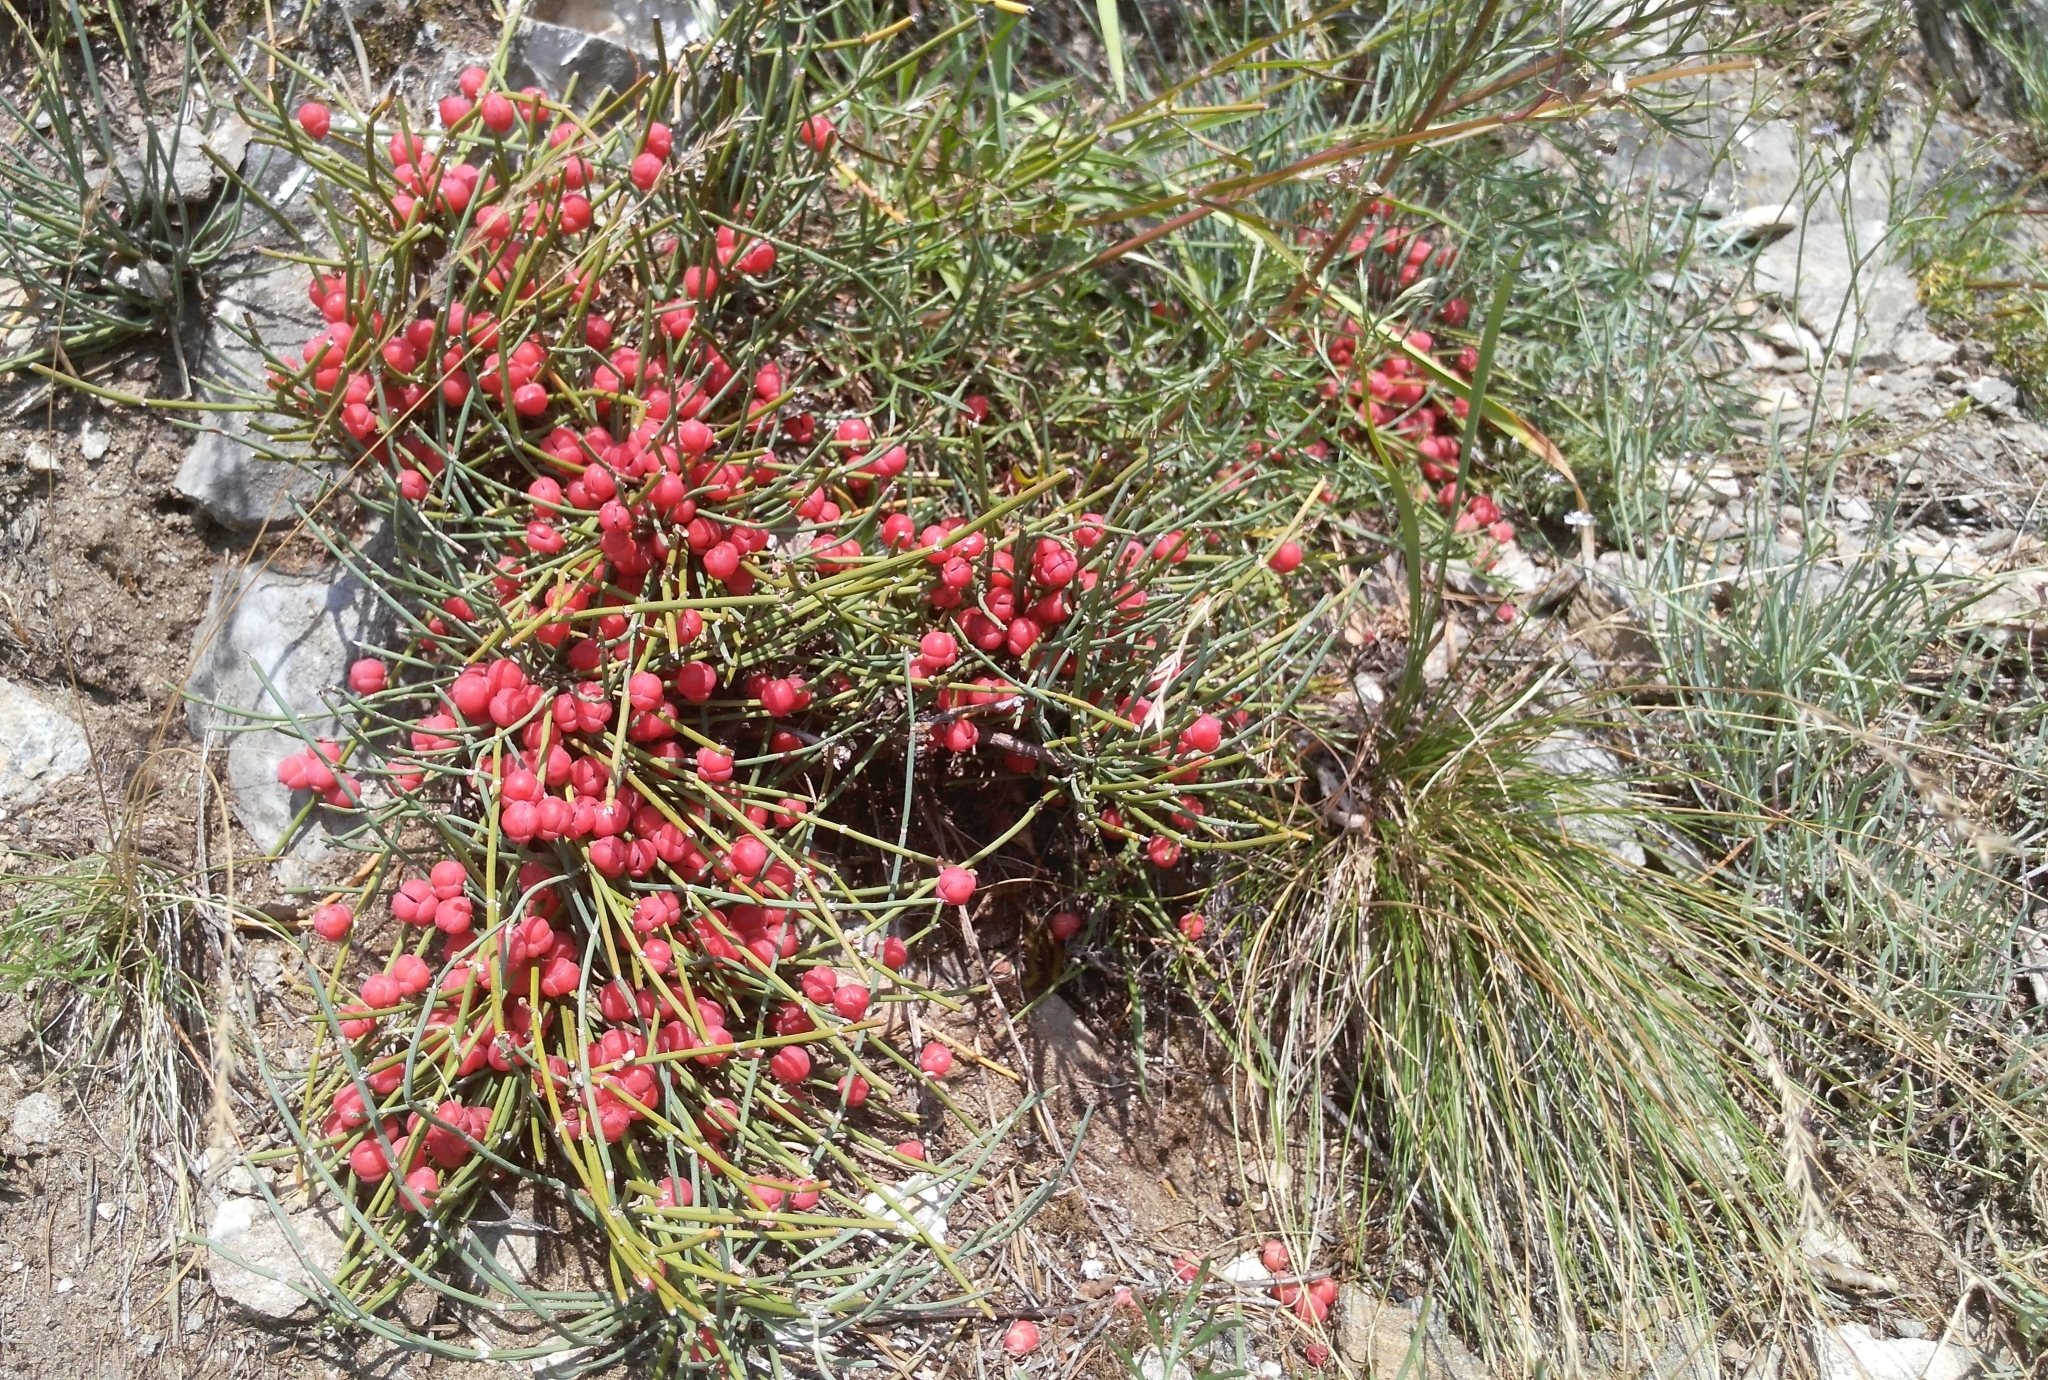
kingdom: Plantae
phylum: Tracheophyta
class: Gnetopsida
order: Ephedrales
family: Ephedraceae
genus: Ephedra
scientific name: Ephedra monosperma
